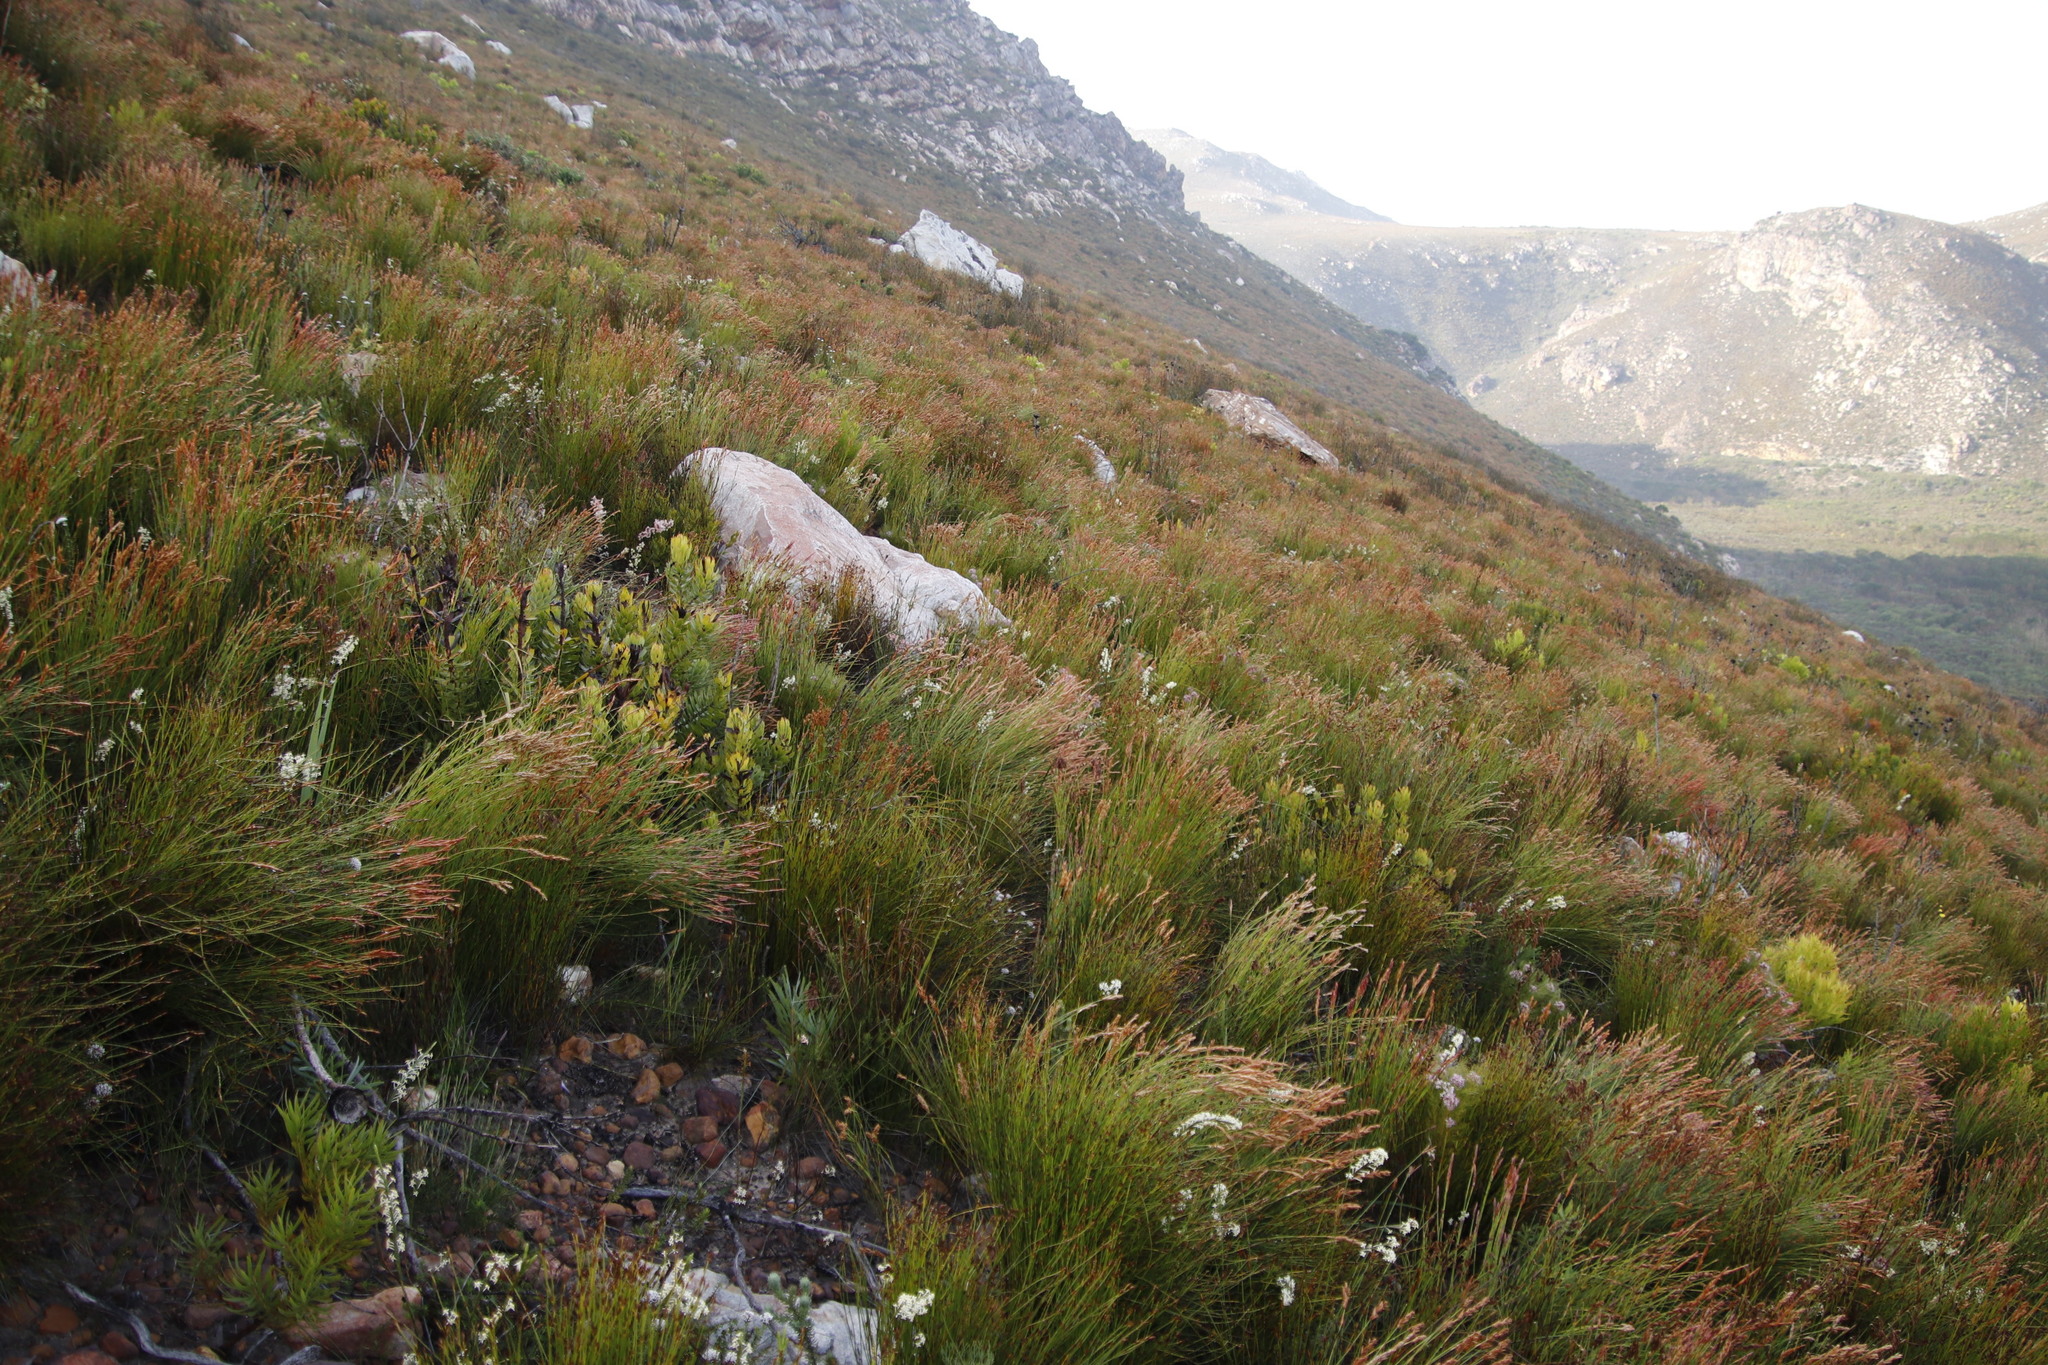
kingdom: Plantae
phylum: Tracheophyta
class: Liliopsida
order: Poales
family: Restionaceae
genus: Elegia
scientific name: Elegia stipularis
